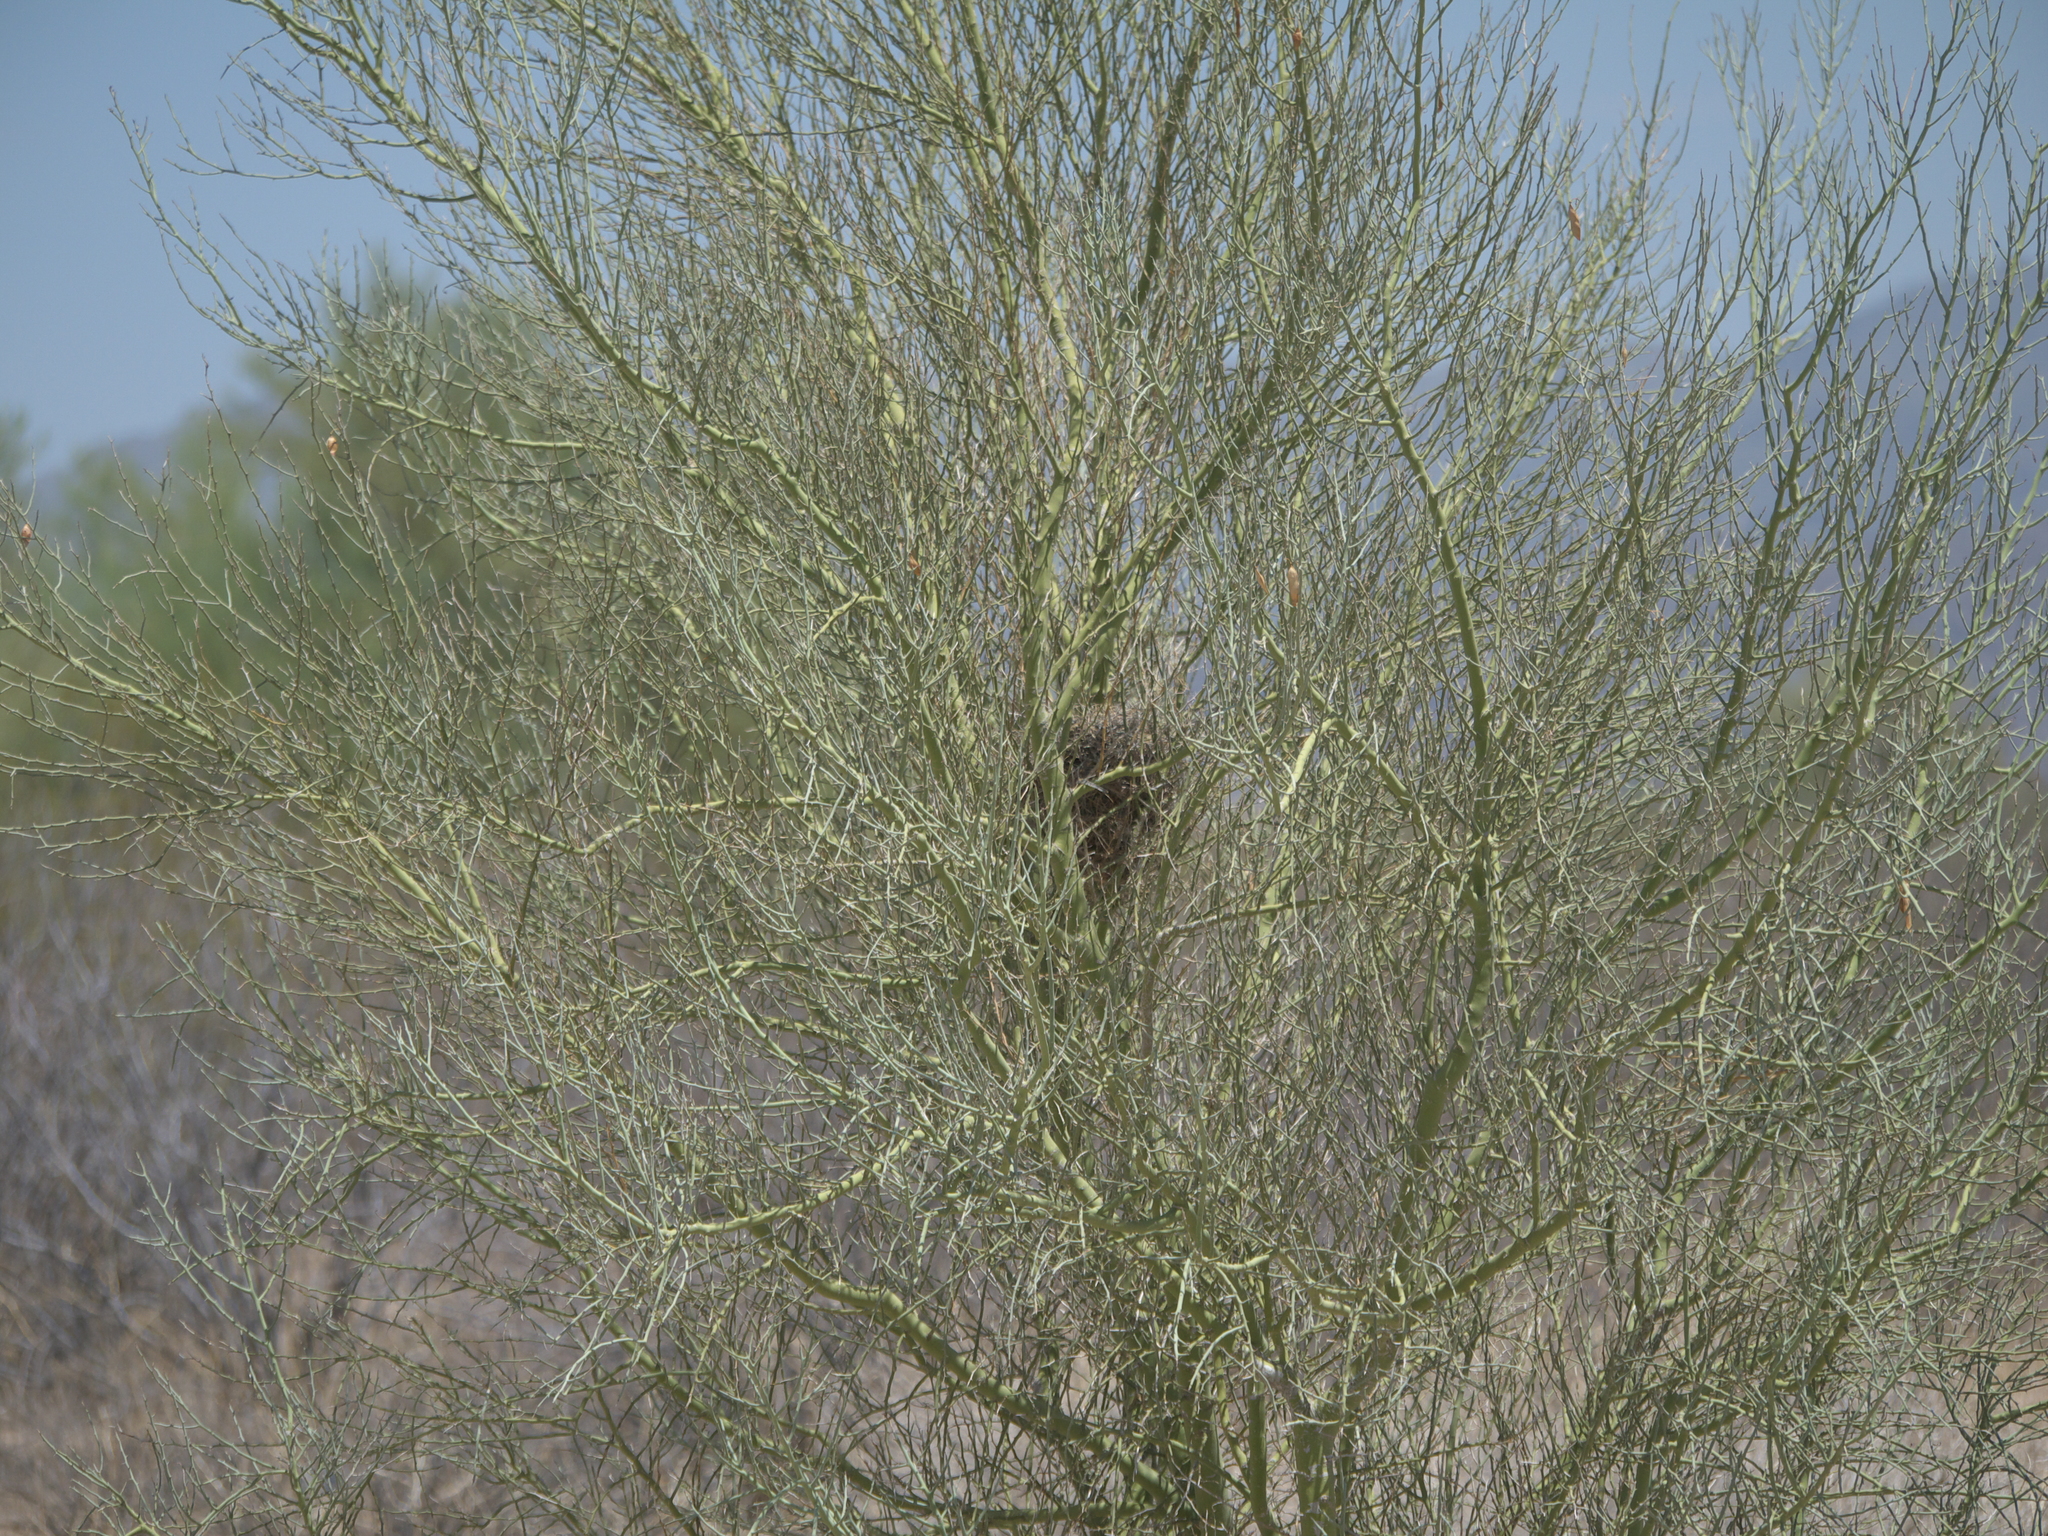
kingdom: Plantae
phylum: Tracheophyta
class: Magnoliopsida
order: Fabales
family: Fabaceae
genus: Parkinsonia
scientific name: Parkinsonia florida
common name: Blue paloverde
